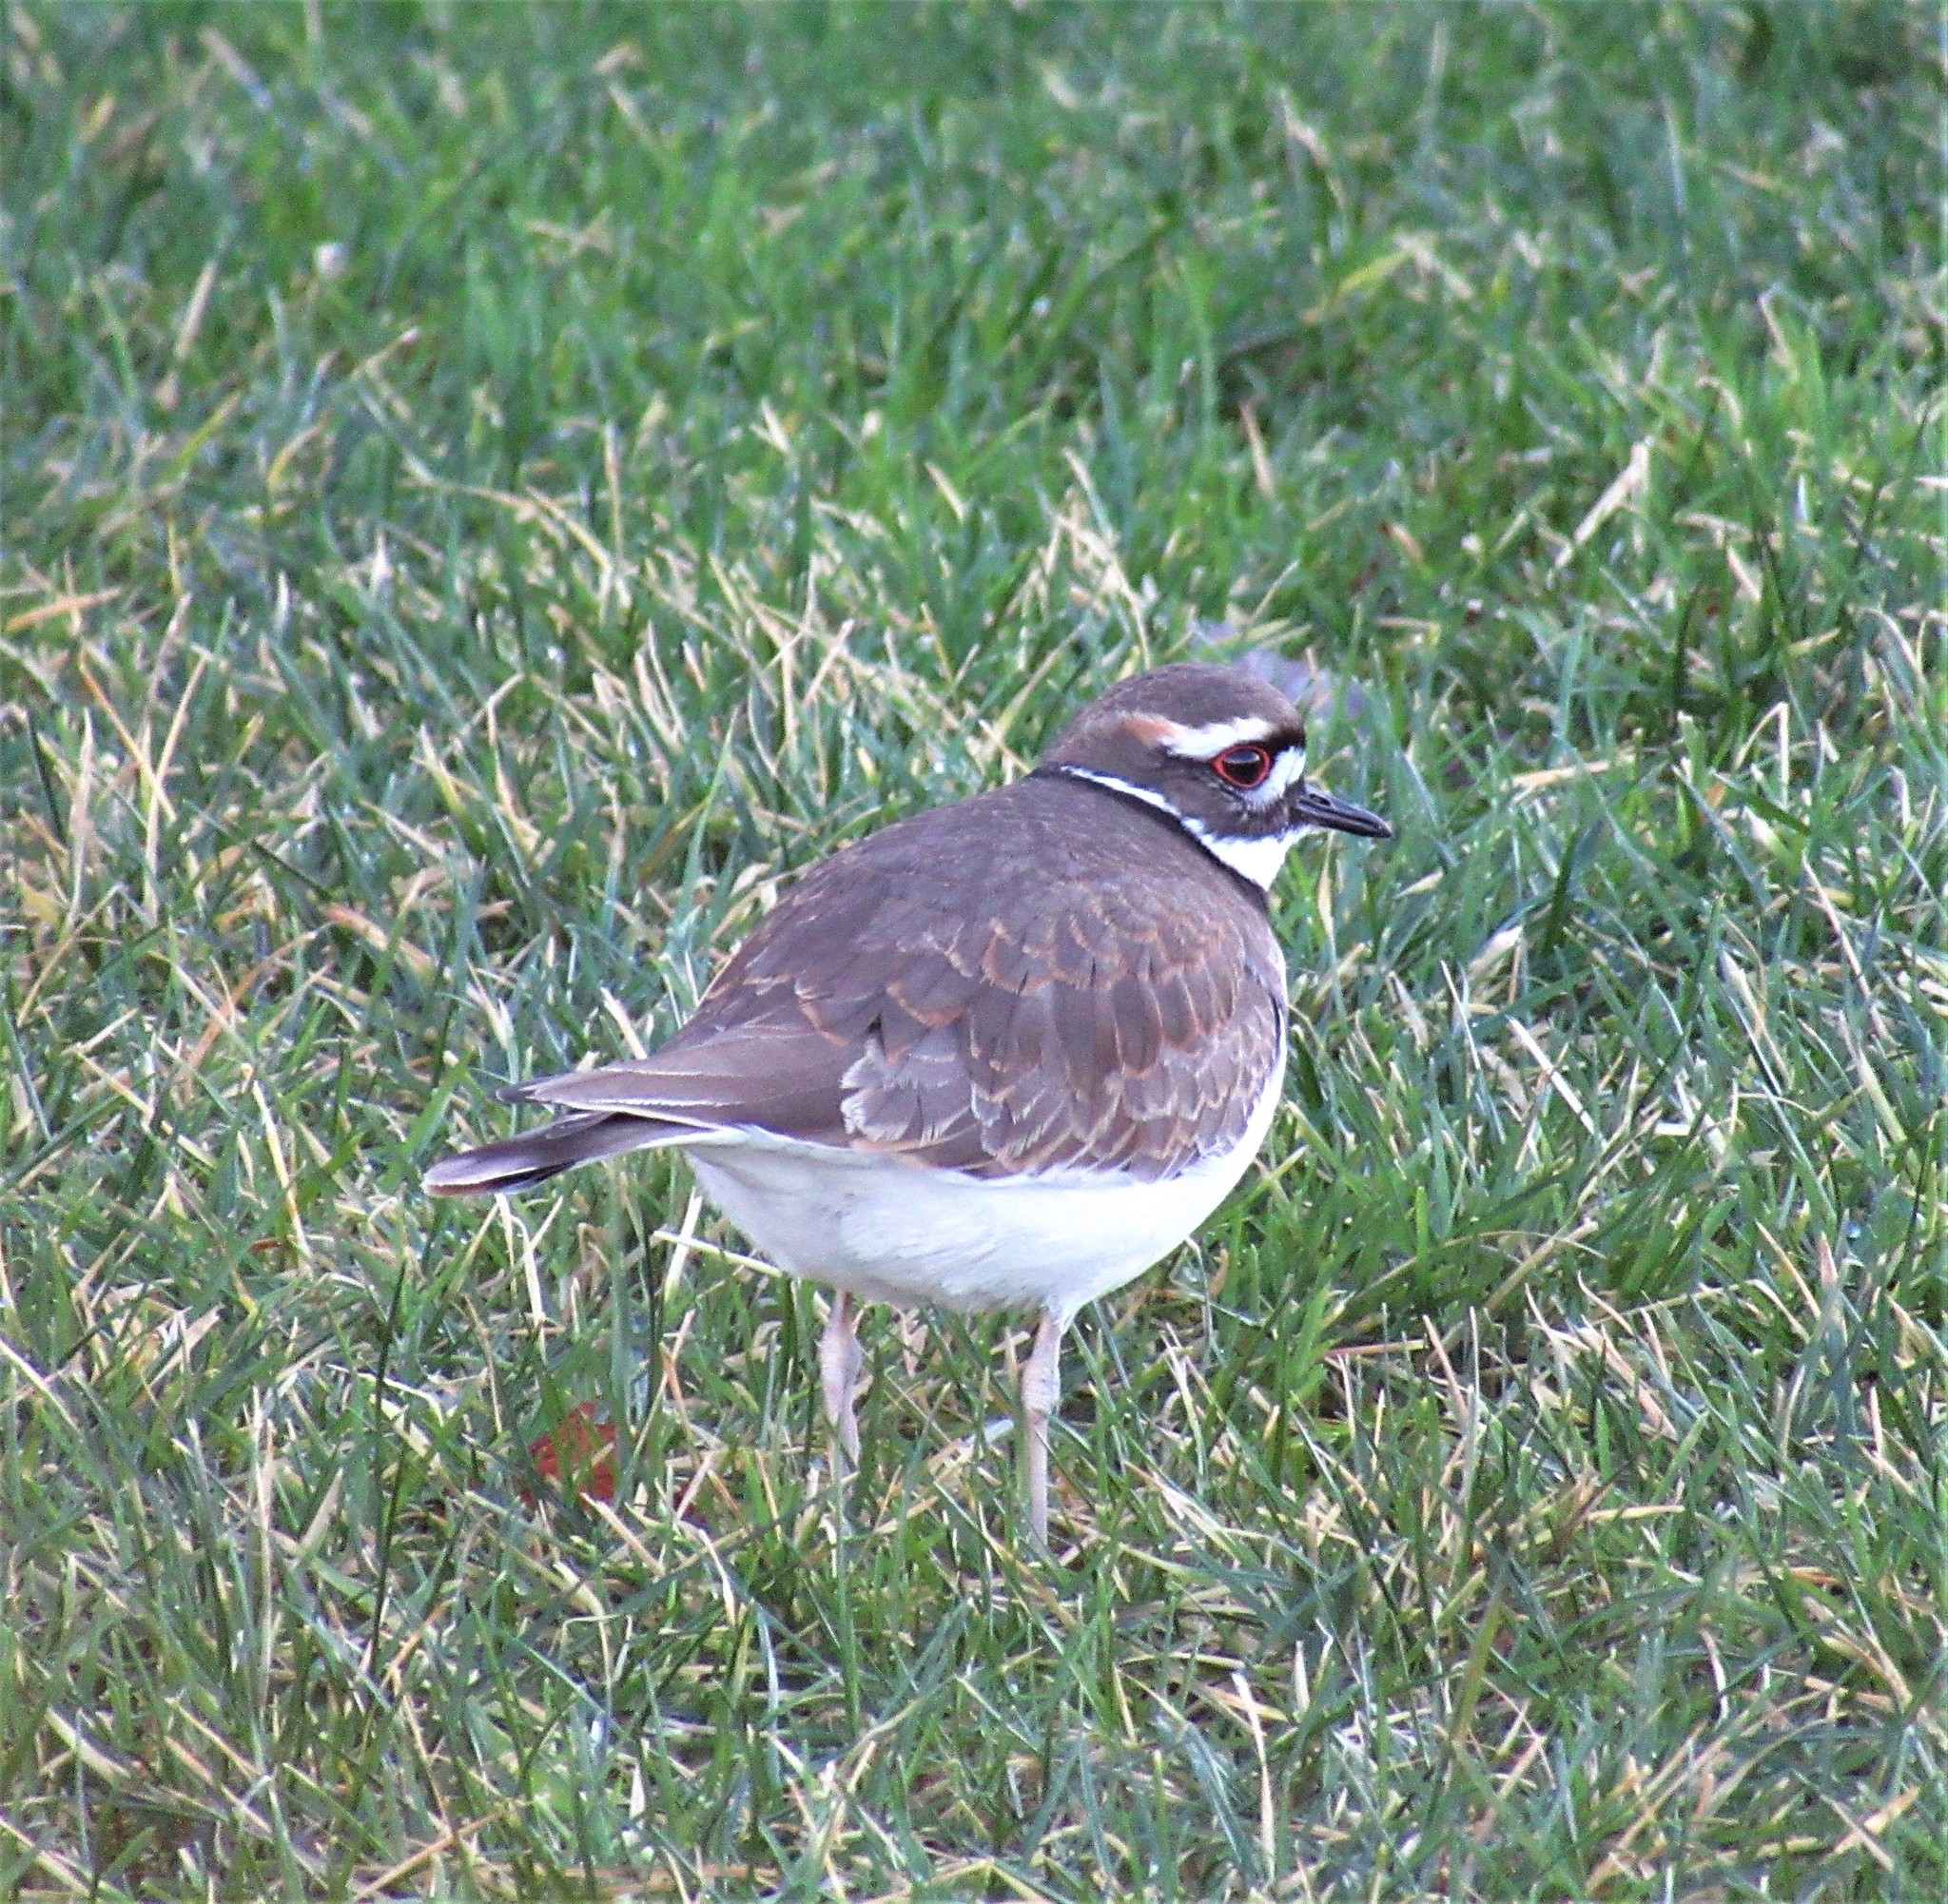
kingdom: Animalia
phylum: Chordata
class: Aves
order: Charadriiformes
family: Charadriidae
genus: Charadrius
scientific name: Charadrius vociferus
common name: Killdeer
